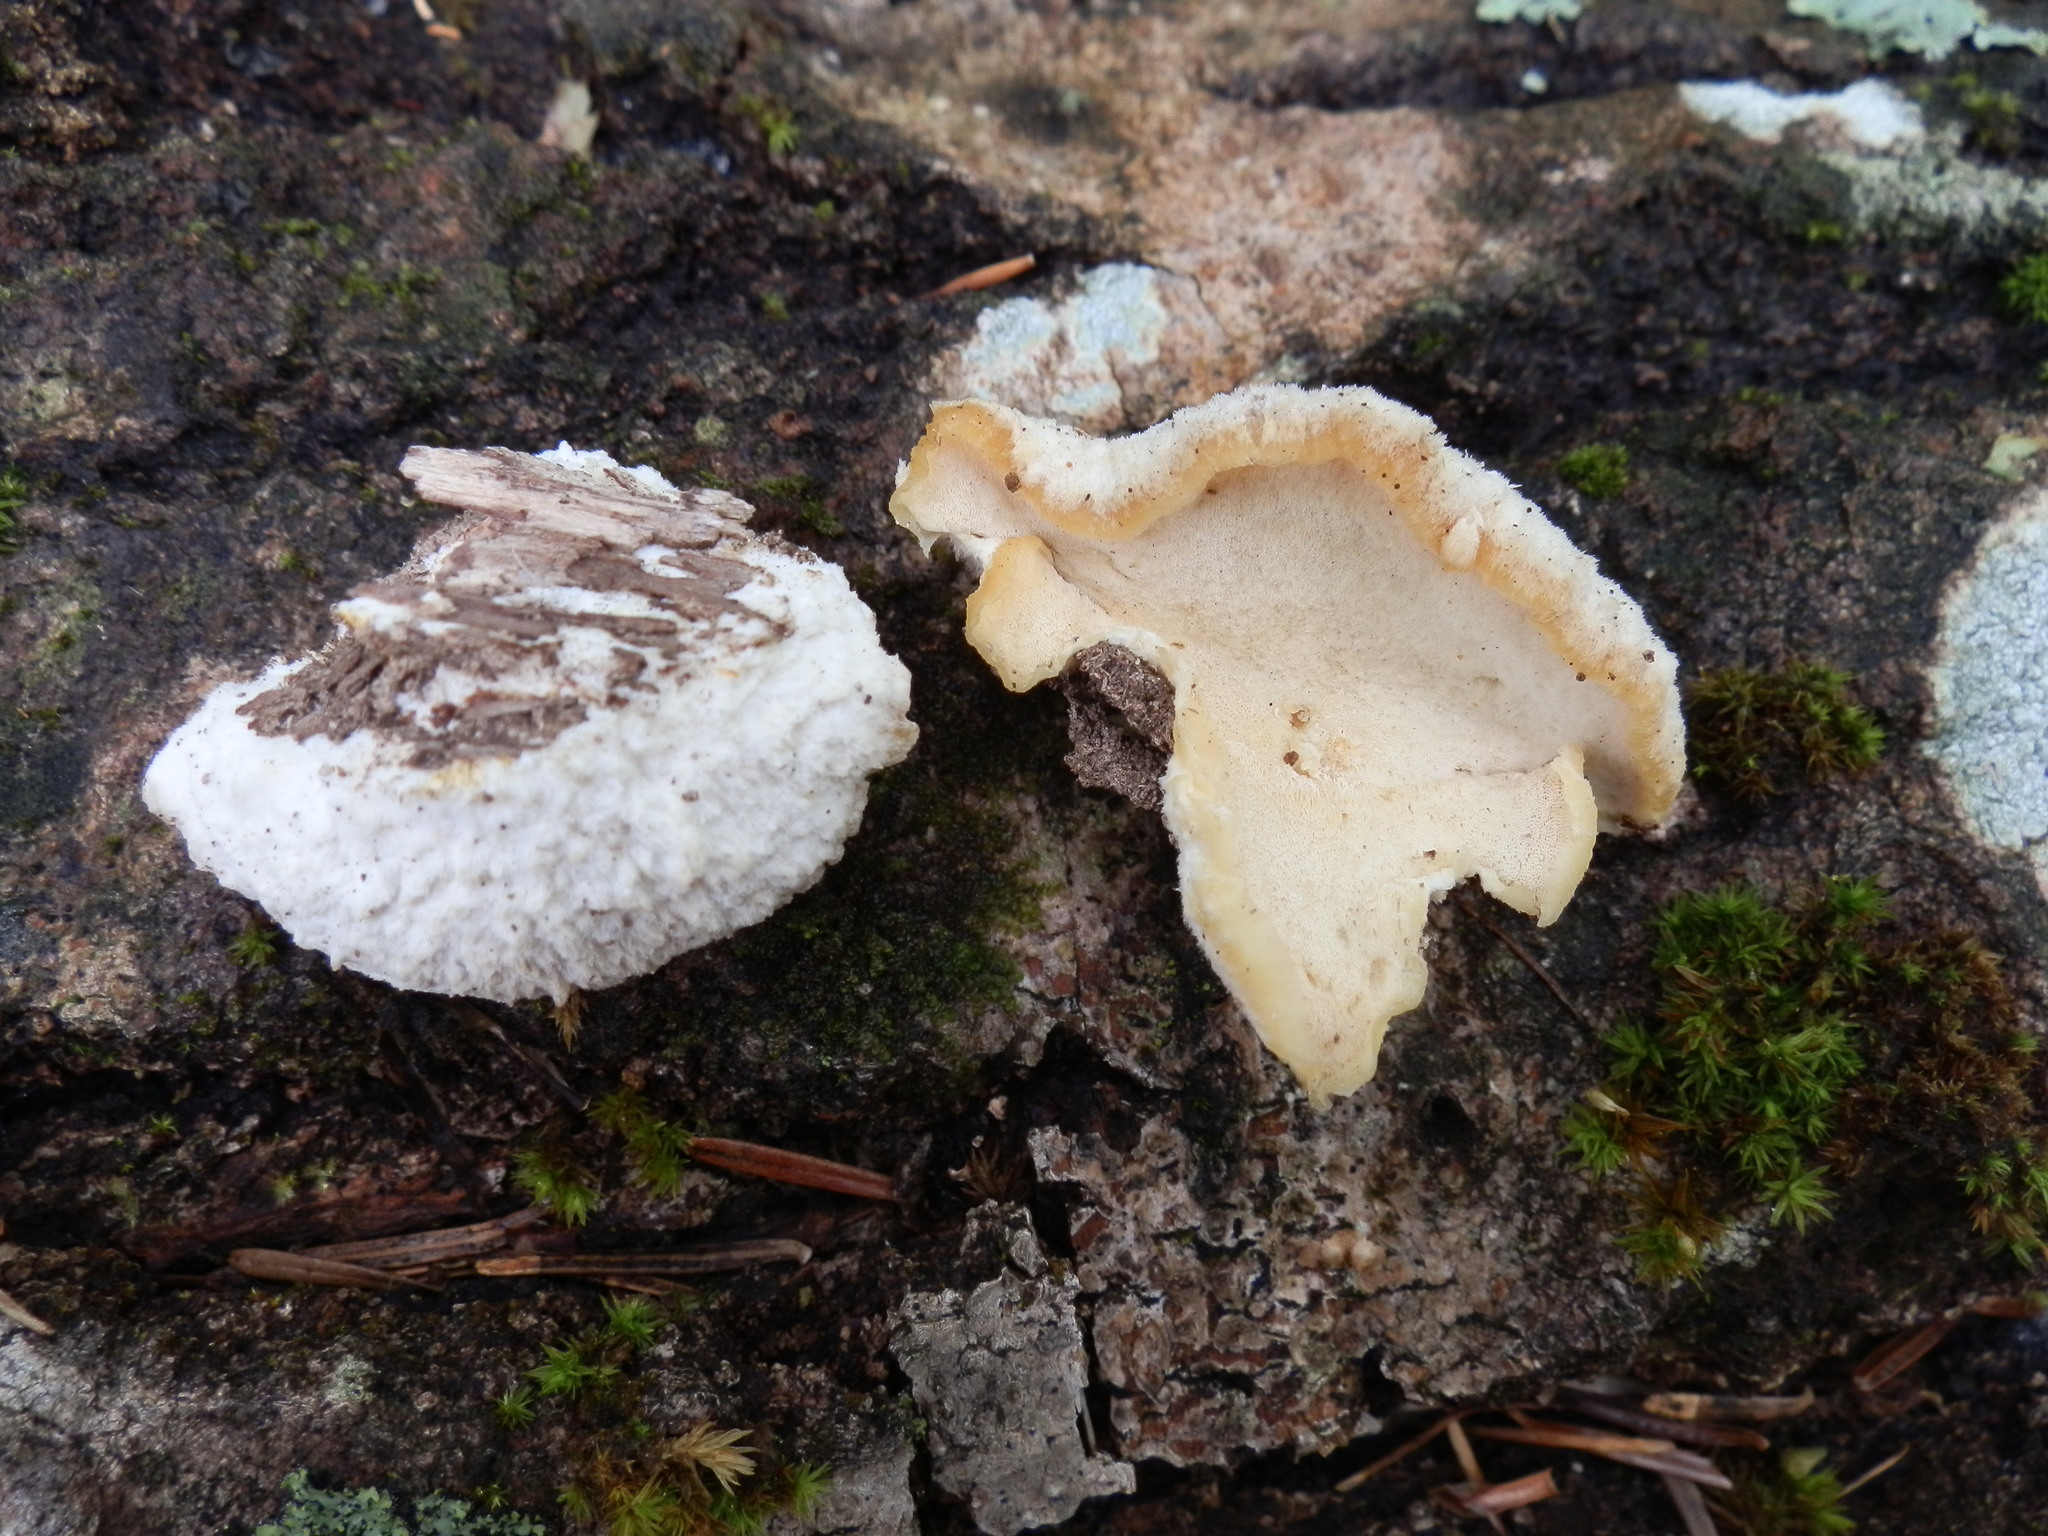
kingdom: Fungi
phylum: Basidiomycota
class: Agaricomycetes
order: Polyporales
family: Meruliaceae
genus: Donkia
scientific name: Donkia pulcherrima
